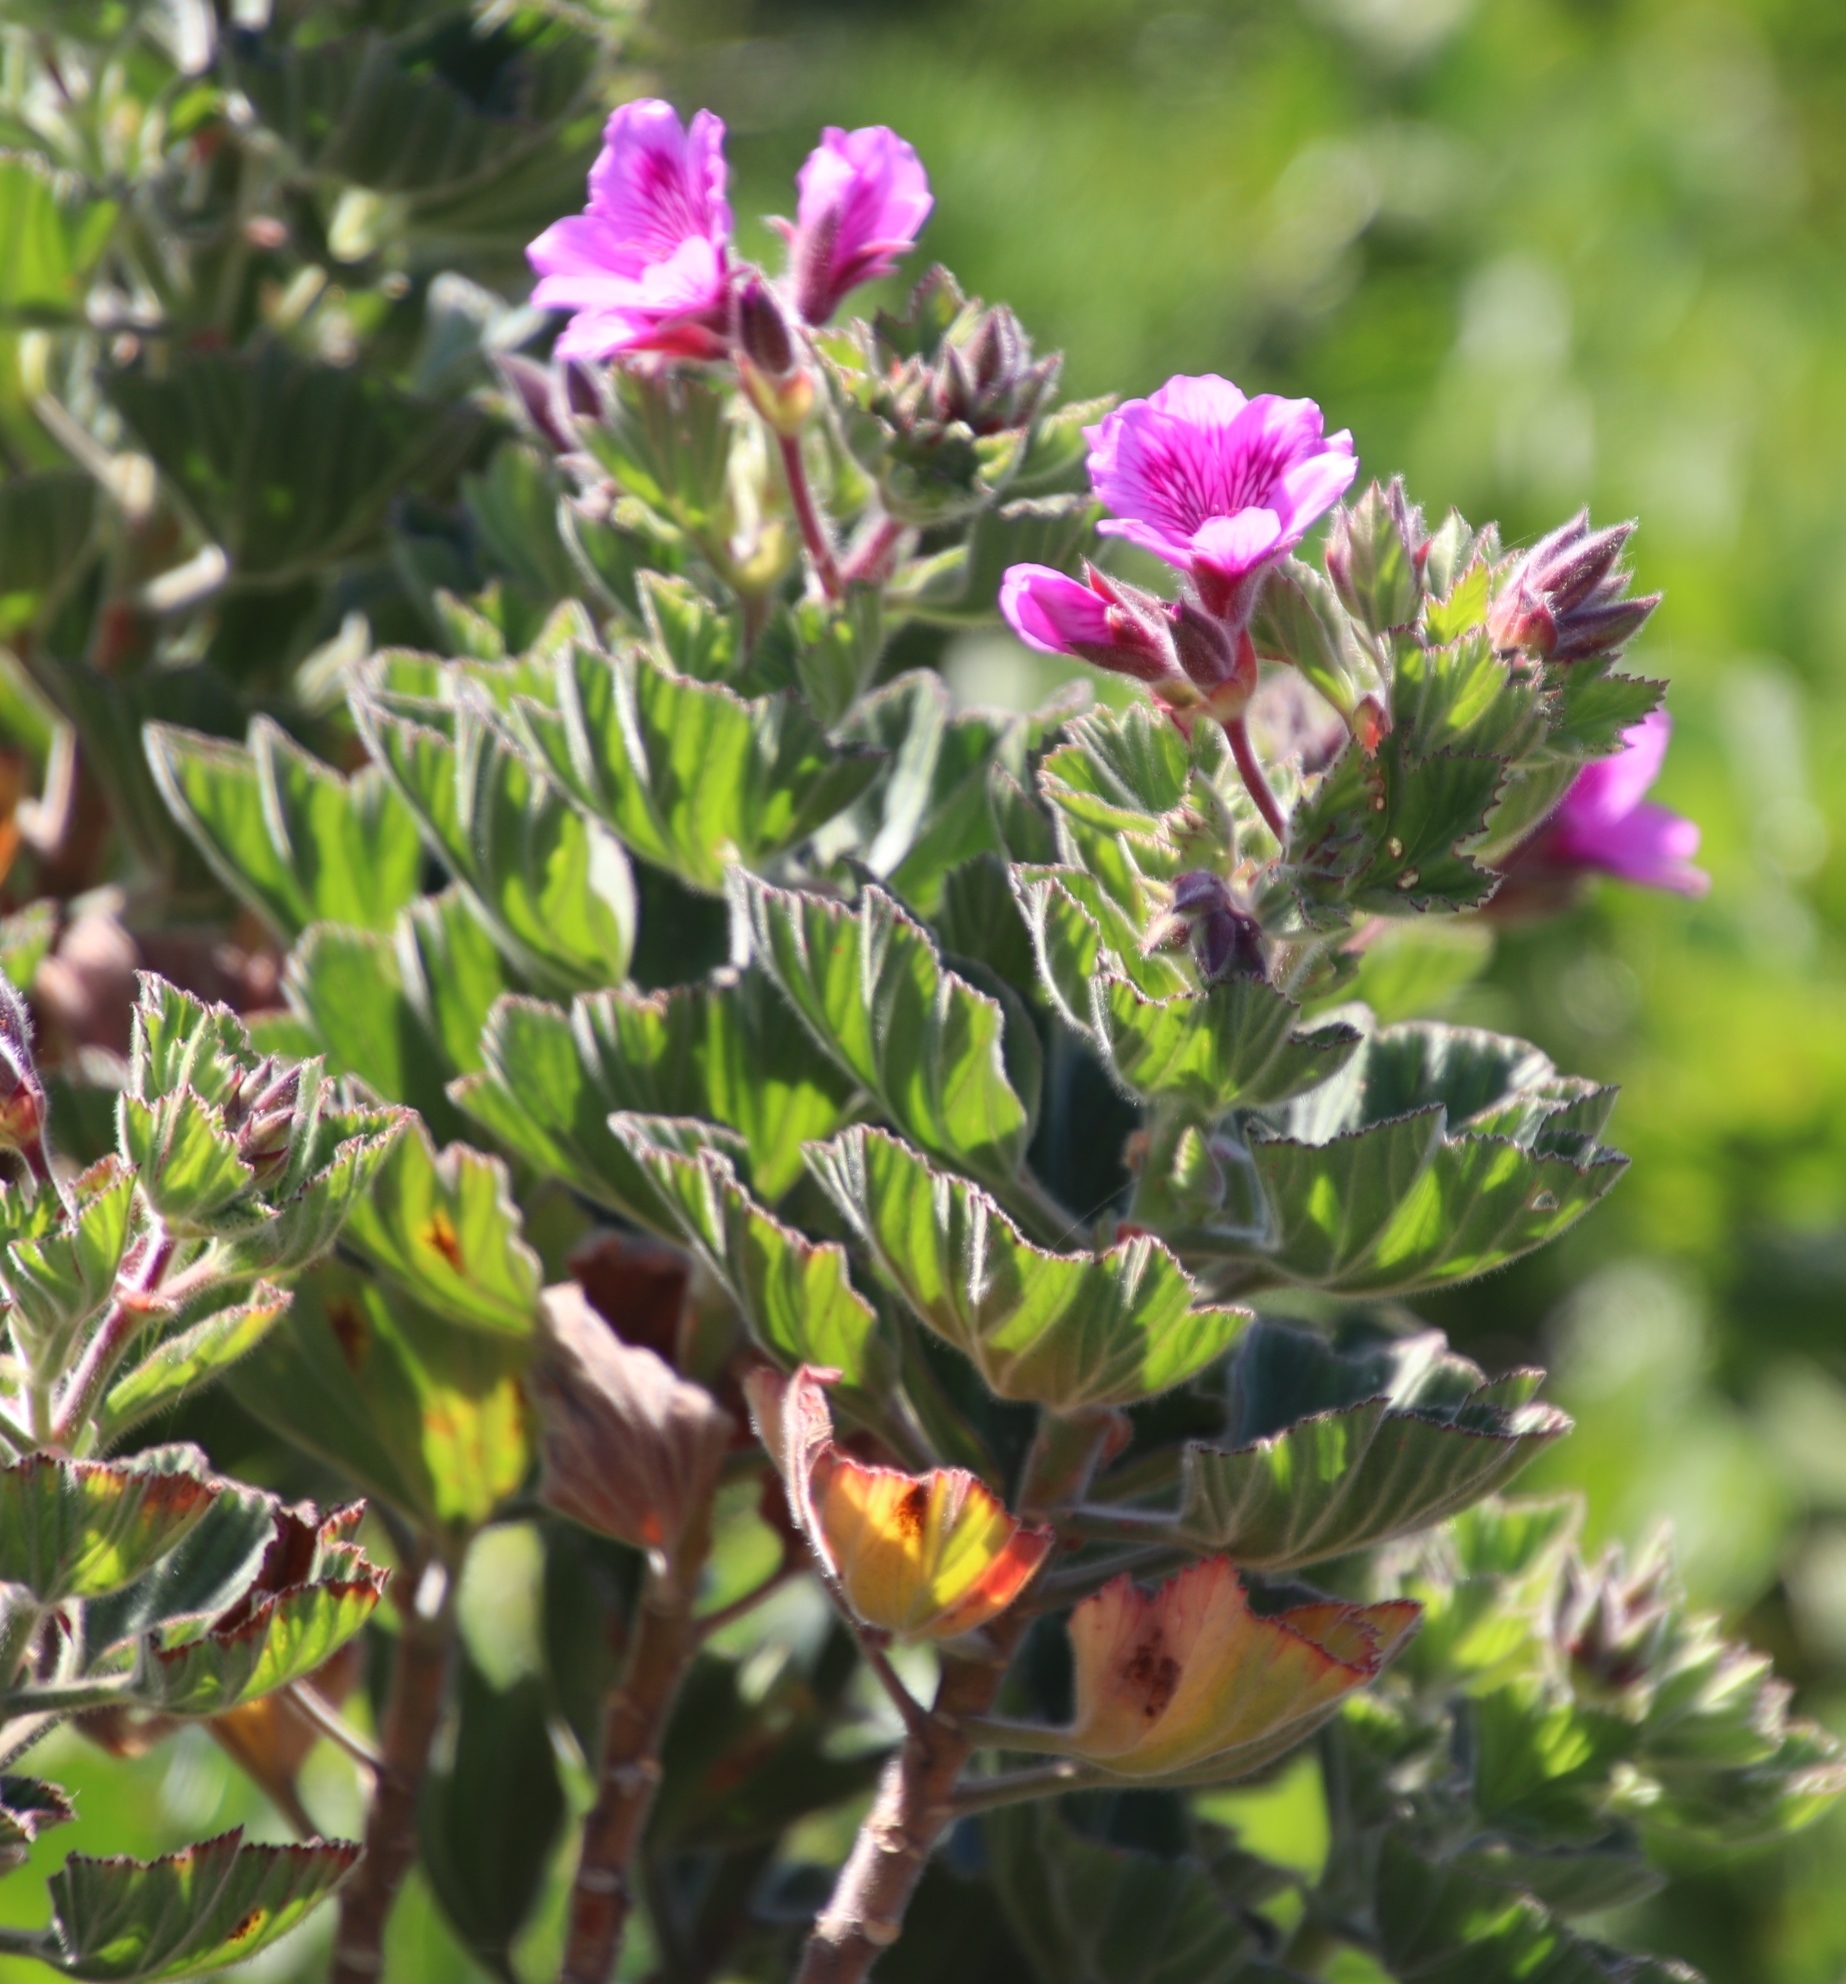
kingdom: Plantae
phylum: Tracheophyta
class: Magnoliopsida
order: Geraniales
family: Geraniaceae
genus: Pelargonium
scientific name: Pelargonium cucullatum
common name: Tree pelargonium
